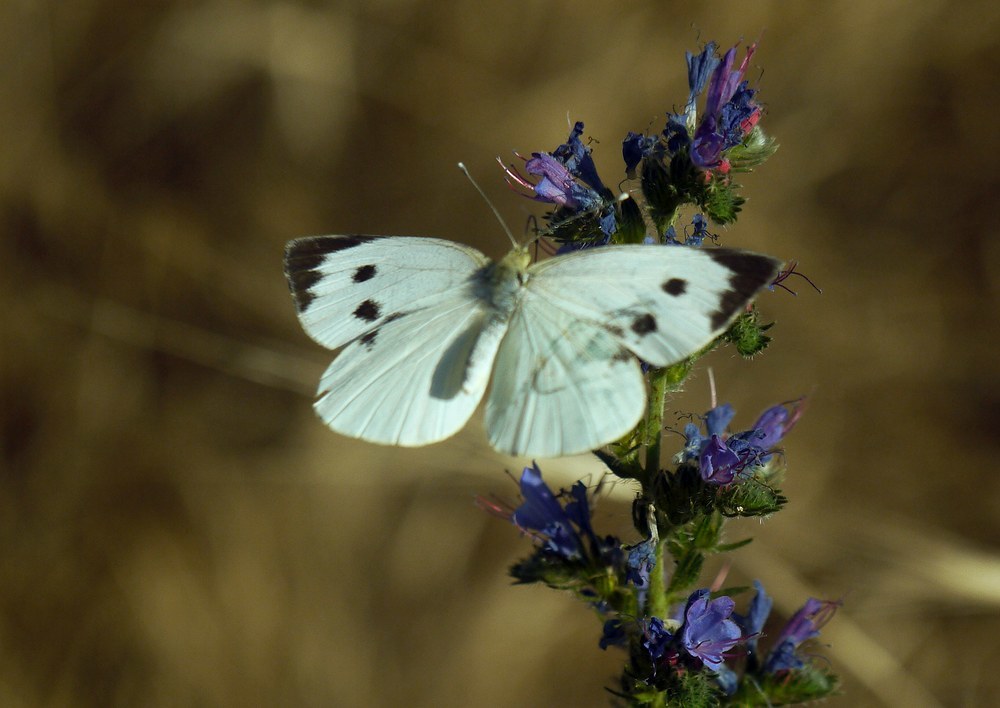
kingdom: Animalia
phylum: Arthropoda
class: Insecta
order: Lepidoptera
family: Pieridae
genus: Pieris
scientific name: Pieris brassicae
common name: Large white
